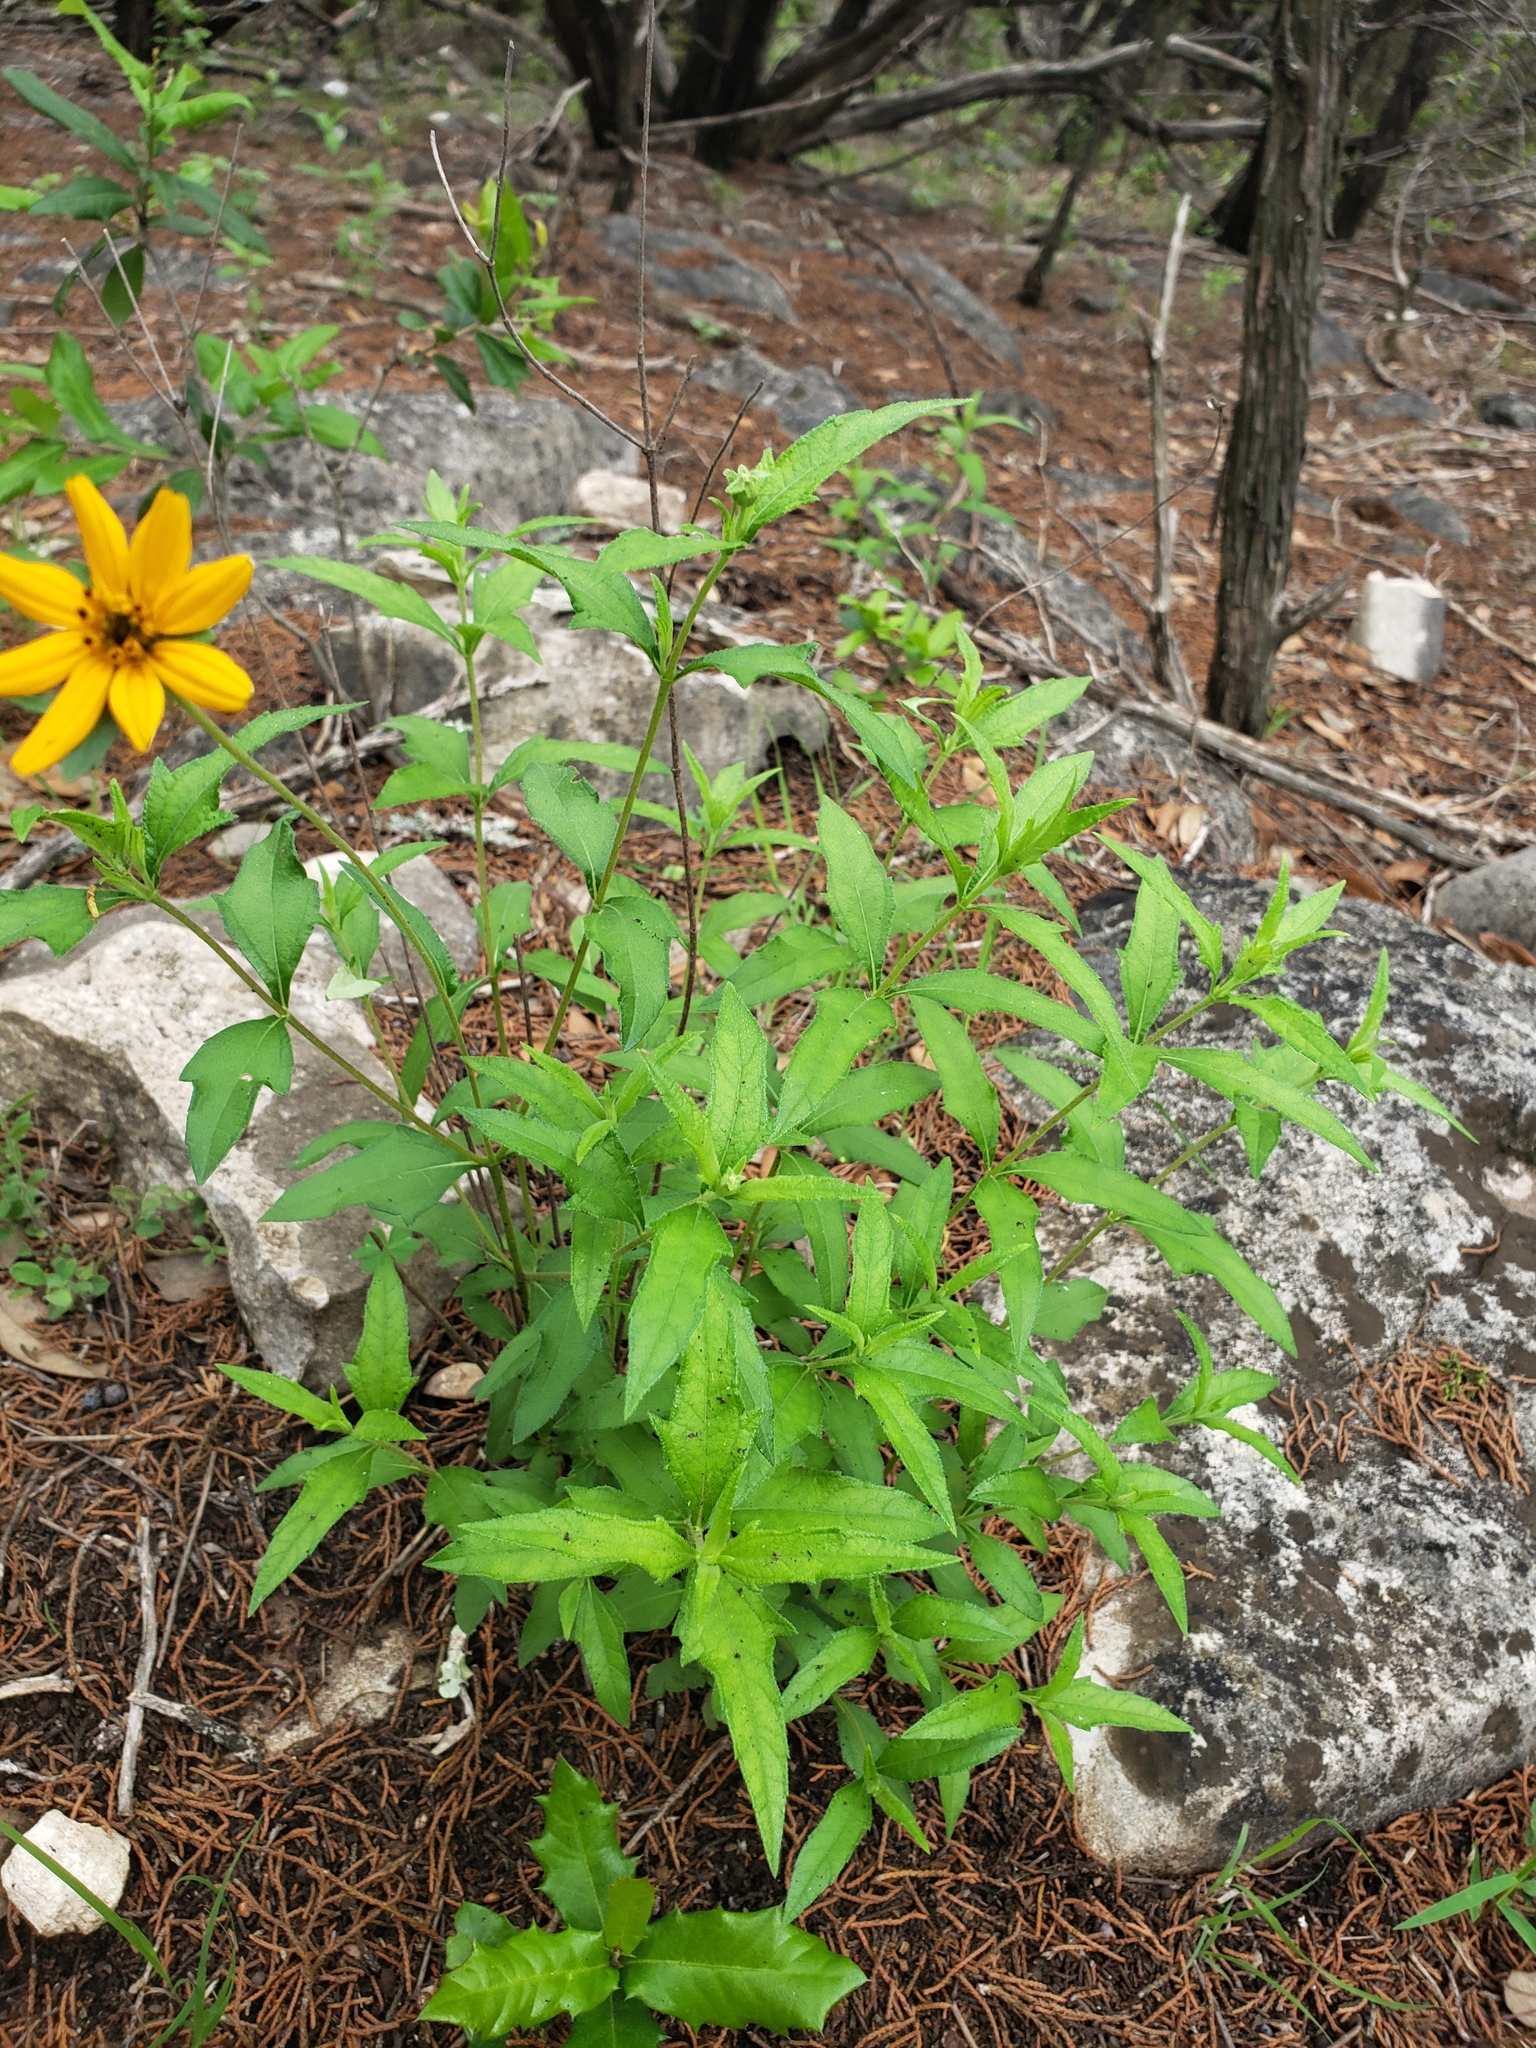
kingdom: Plantae
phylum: Tracheophyta
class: Magnoliopsida
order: Asterales
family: Asteraceae
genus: Wedelia
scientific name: Wedelia acapulcensis
